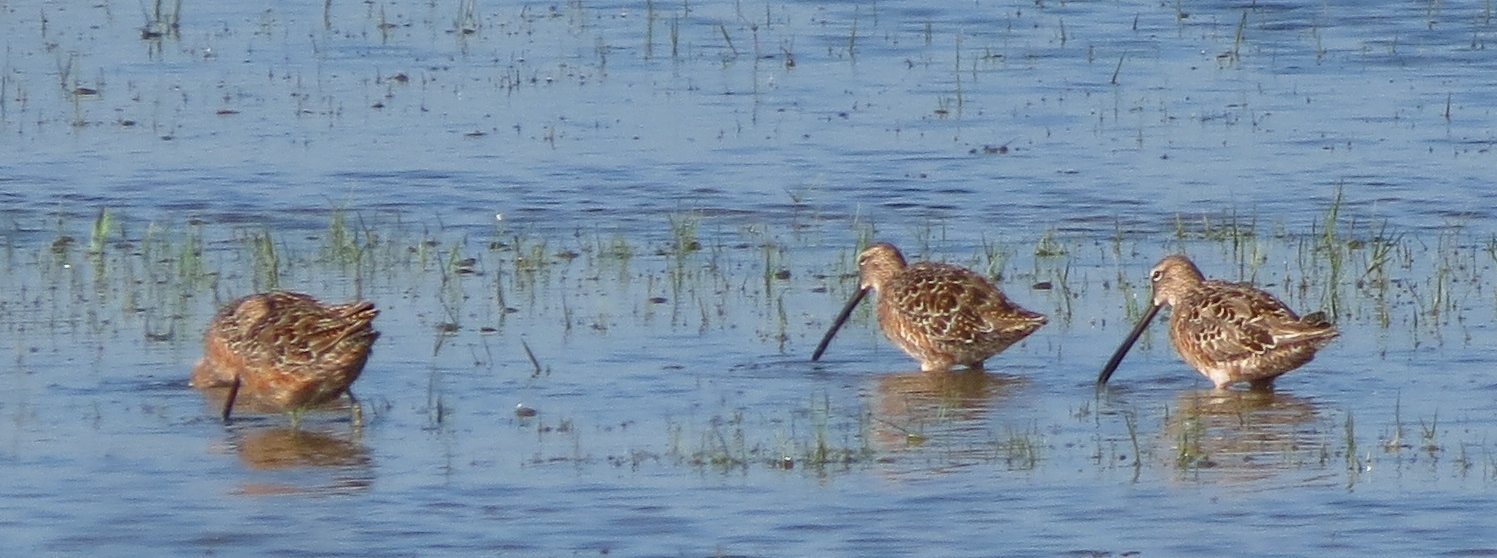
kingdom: Animalia
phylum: Chordata
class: Aves
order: Charadriiformes
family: Scolopacidae
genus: Limnodromus
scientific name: Limnodromus scolopaceus
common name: Long-billed dowitcher
